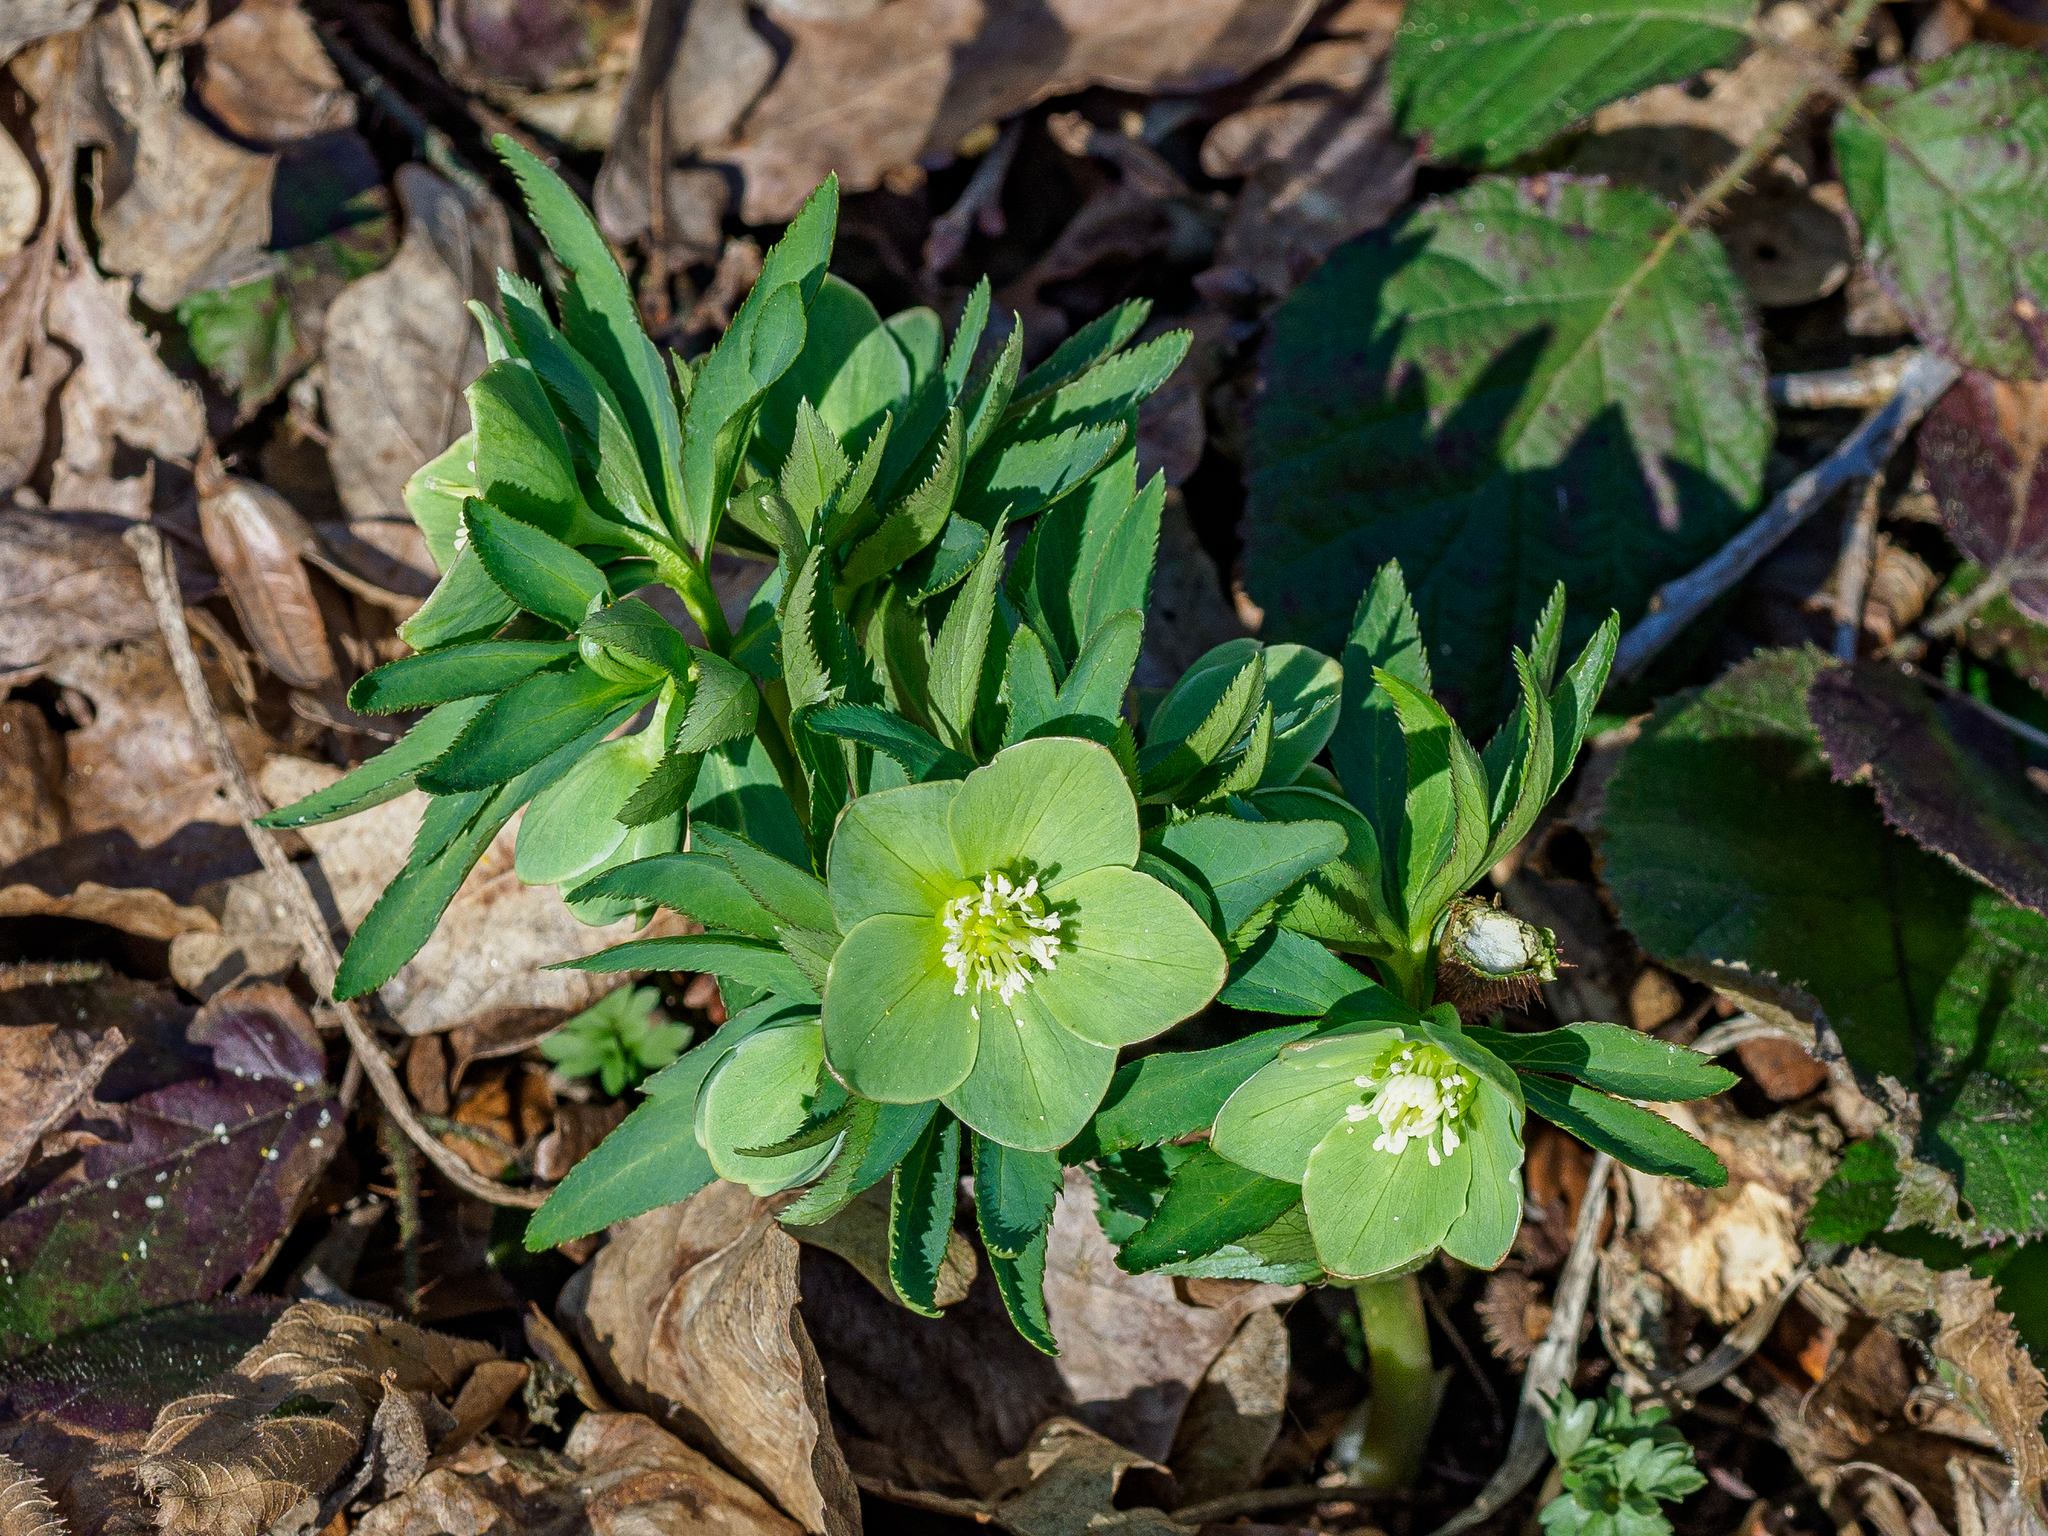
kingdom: Plantae
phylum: Tracheophyta
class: Magnoliopsida
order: Ranunculales
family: Ranunculaceae
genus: Helleborus
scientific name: Helleborus dumetorum
